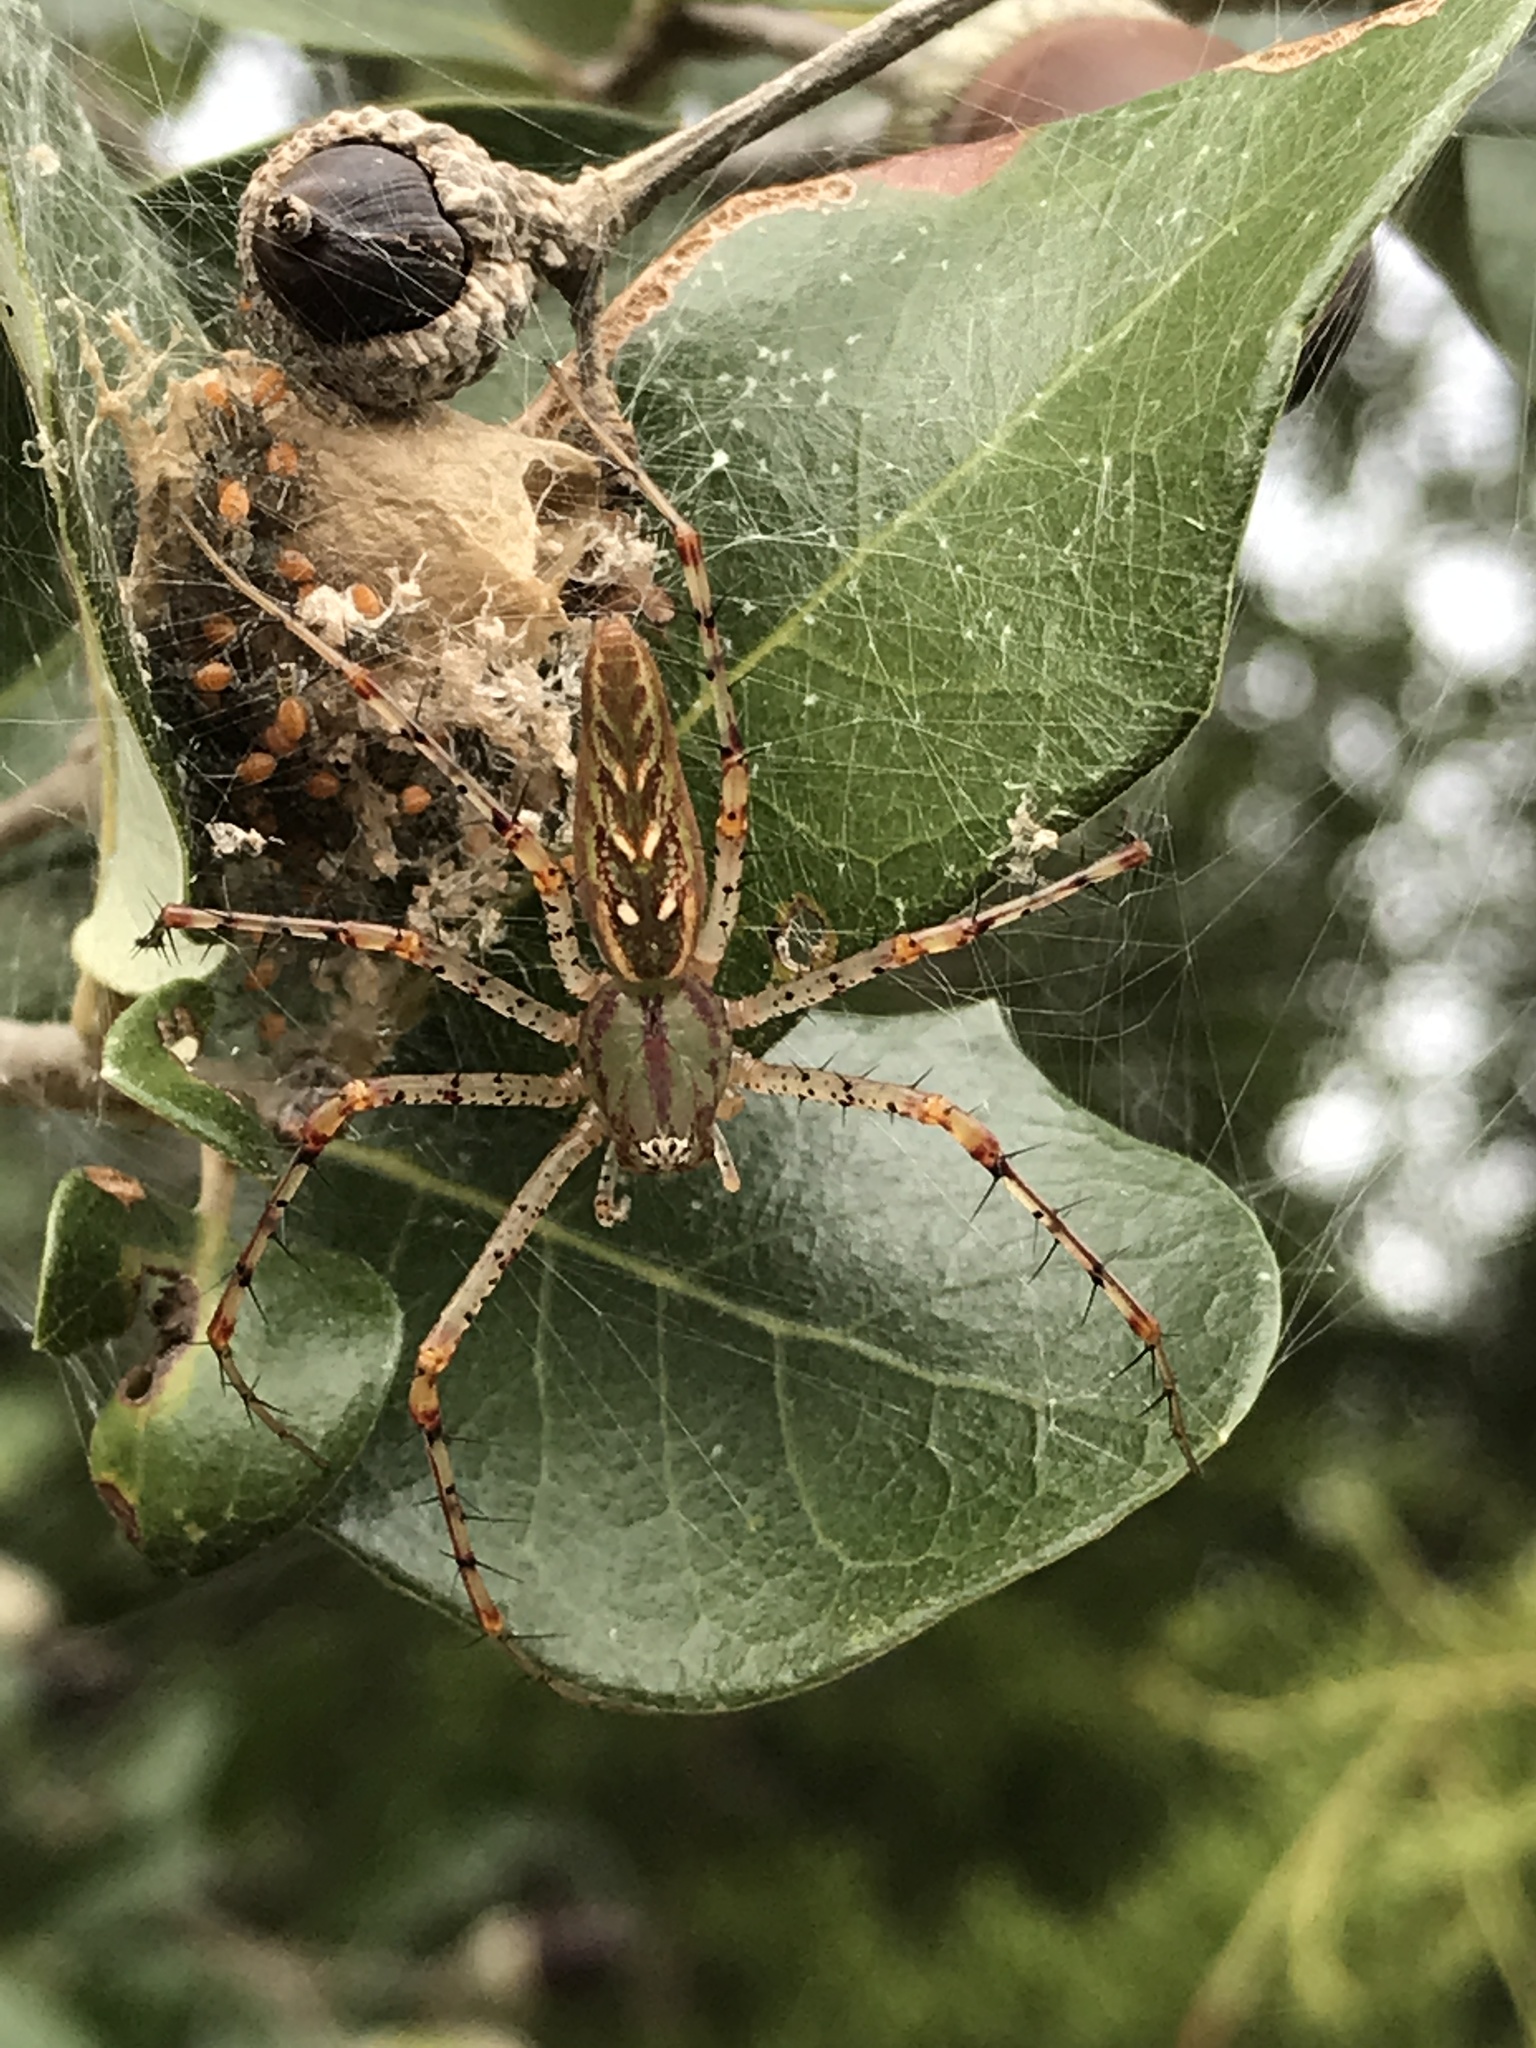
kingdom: Animalia
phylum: Arthropoda
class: Arachnida
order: Araneae
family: Oxyopidae
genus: Peucetia
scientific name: Peucetia viridans
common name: Lynx spiders
